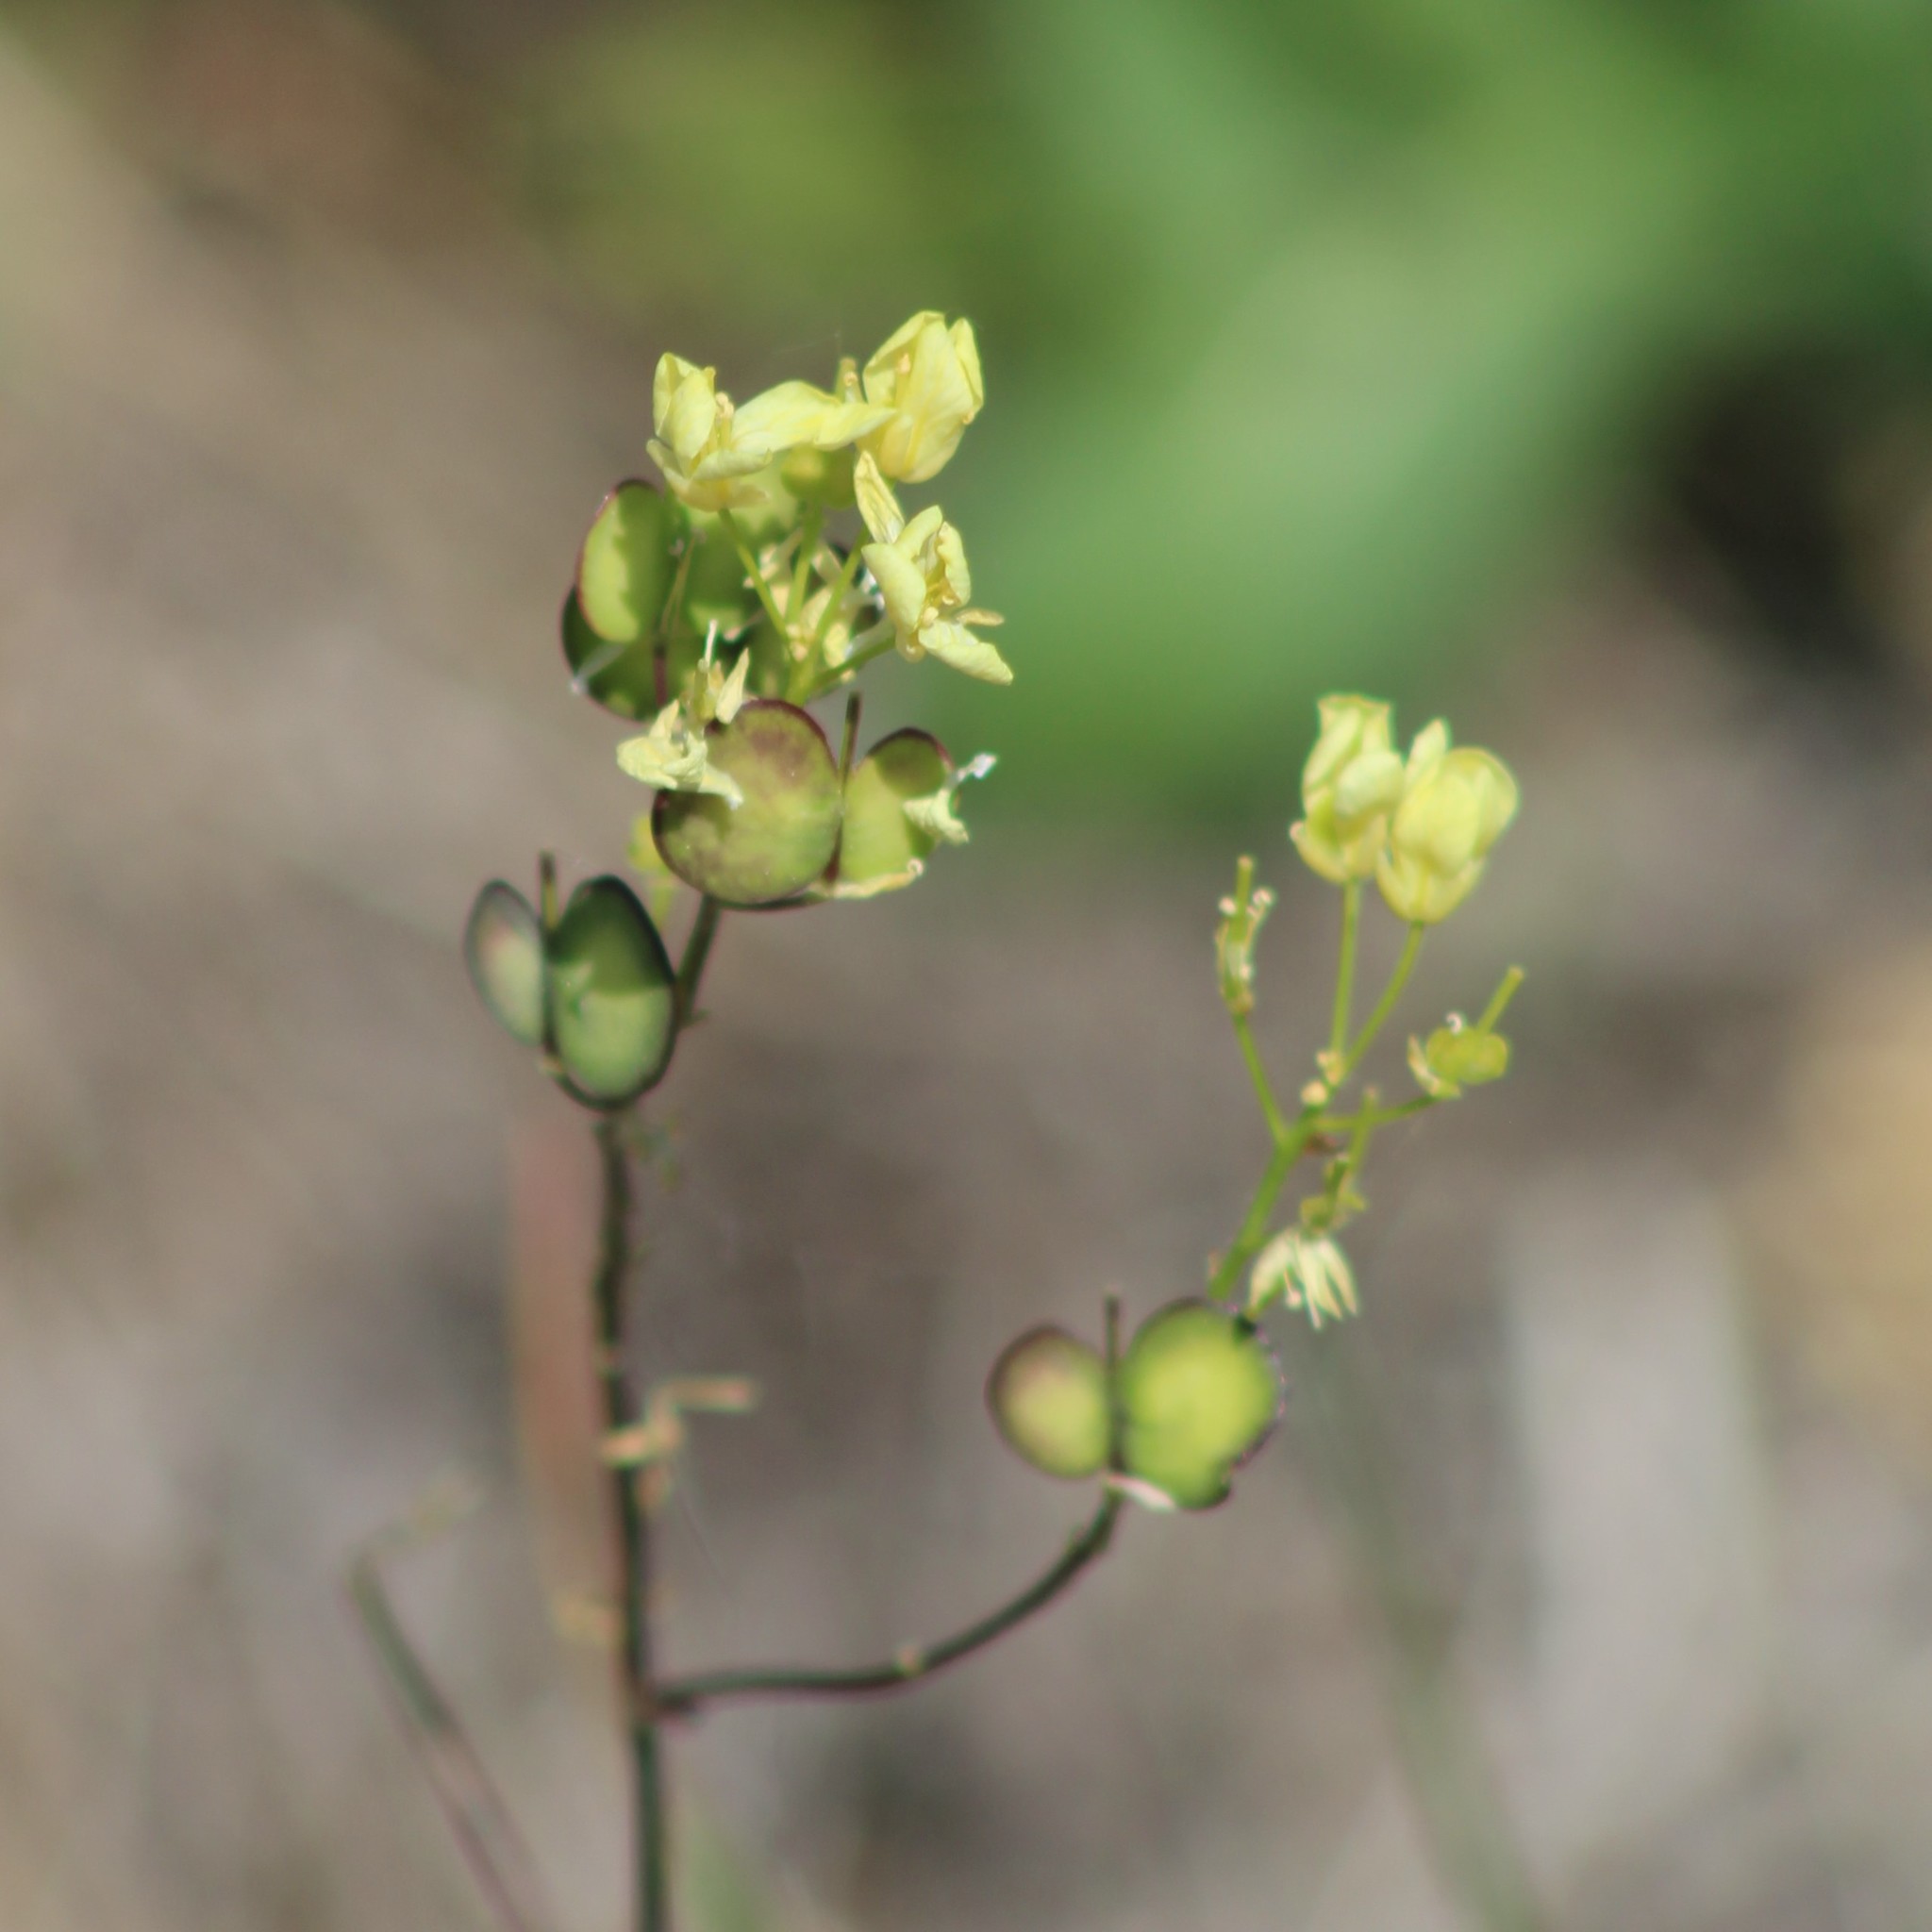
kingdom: Plantae
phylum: Tracheophyta
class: Magnoliopsida
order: Brassicales
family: Brassicaceae
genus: Biscutella
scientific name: Biscutella laevigata
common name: Buckler mustard
